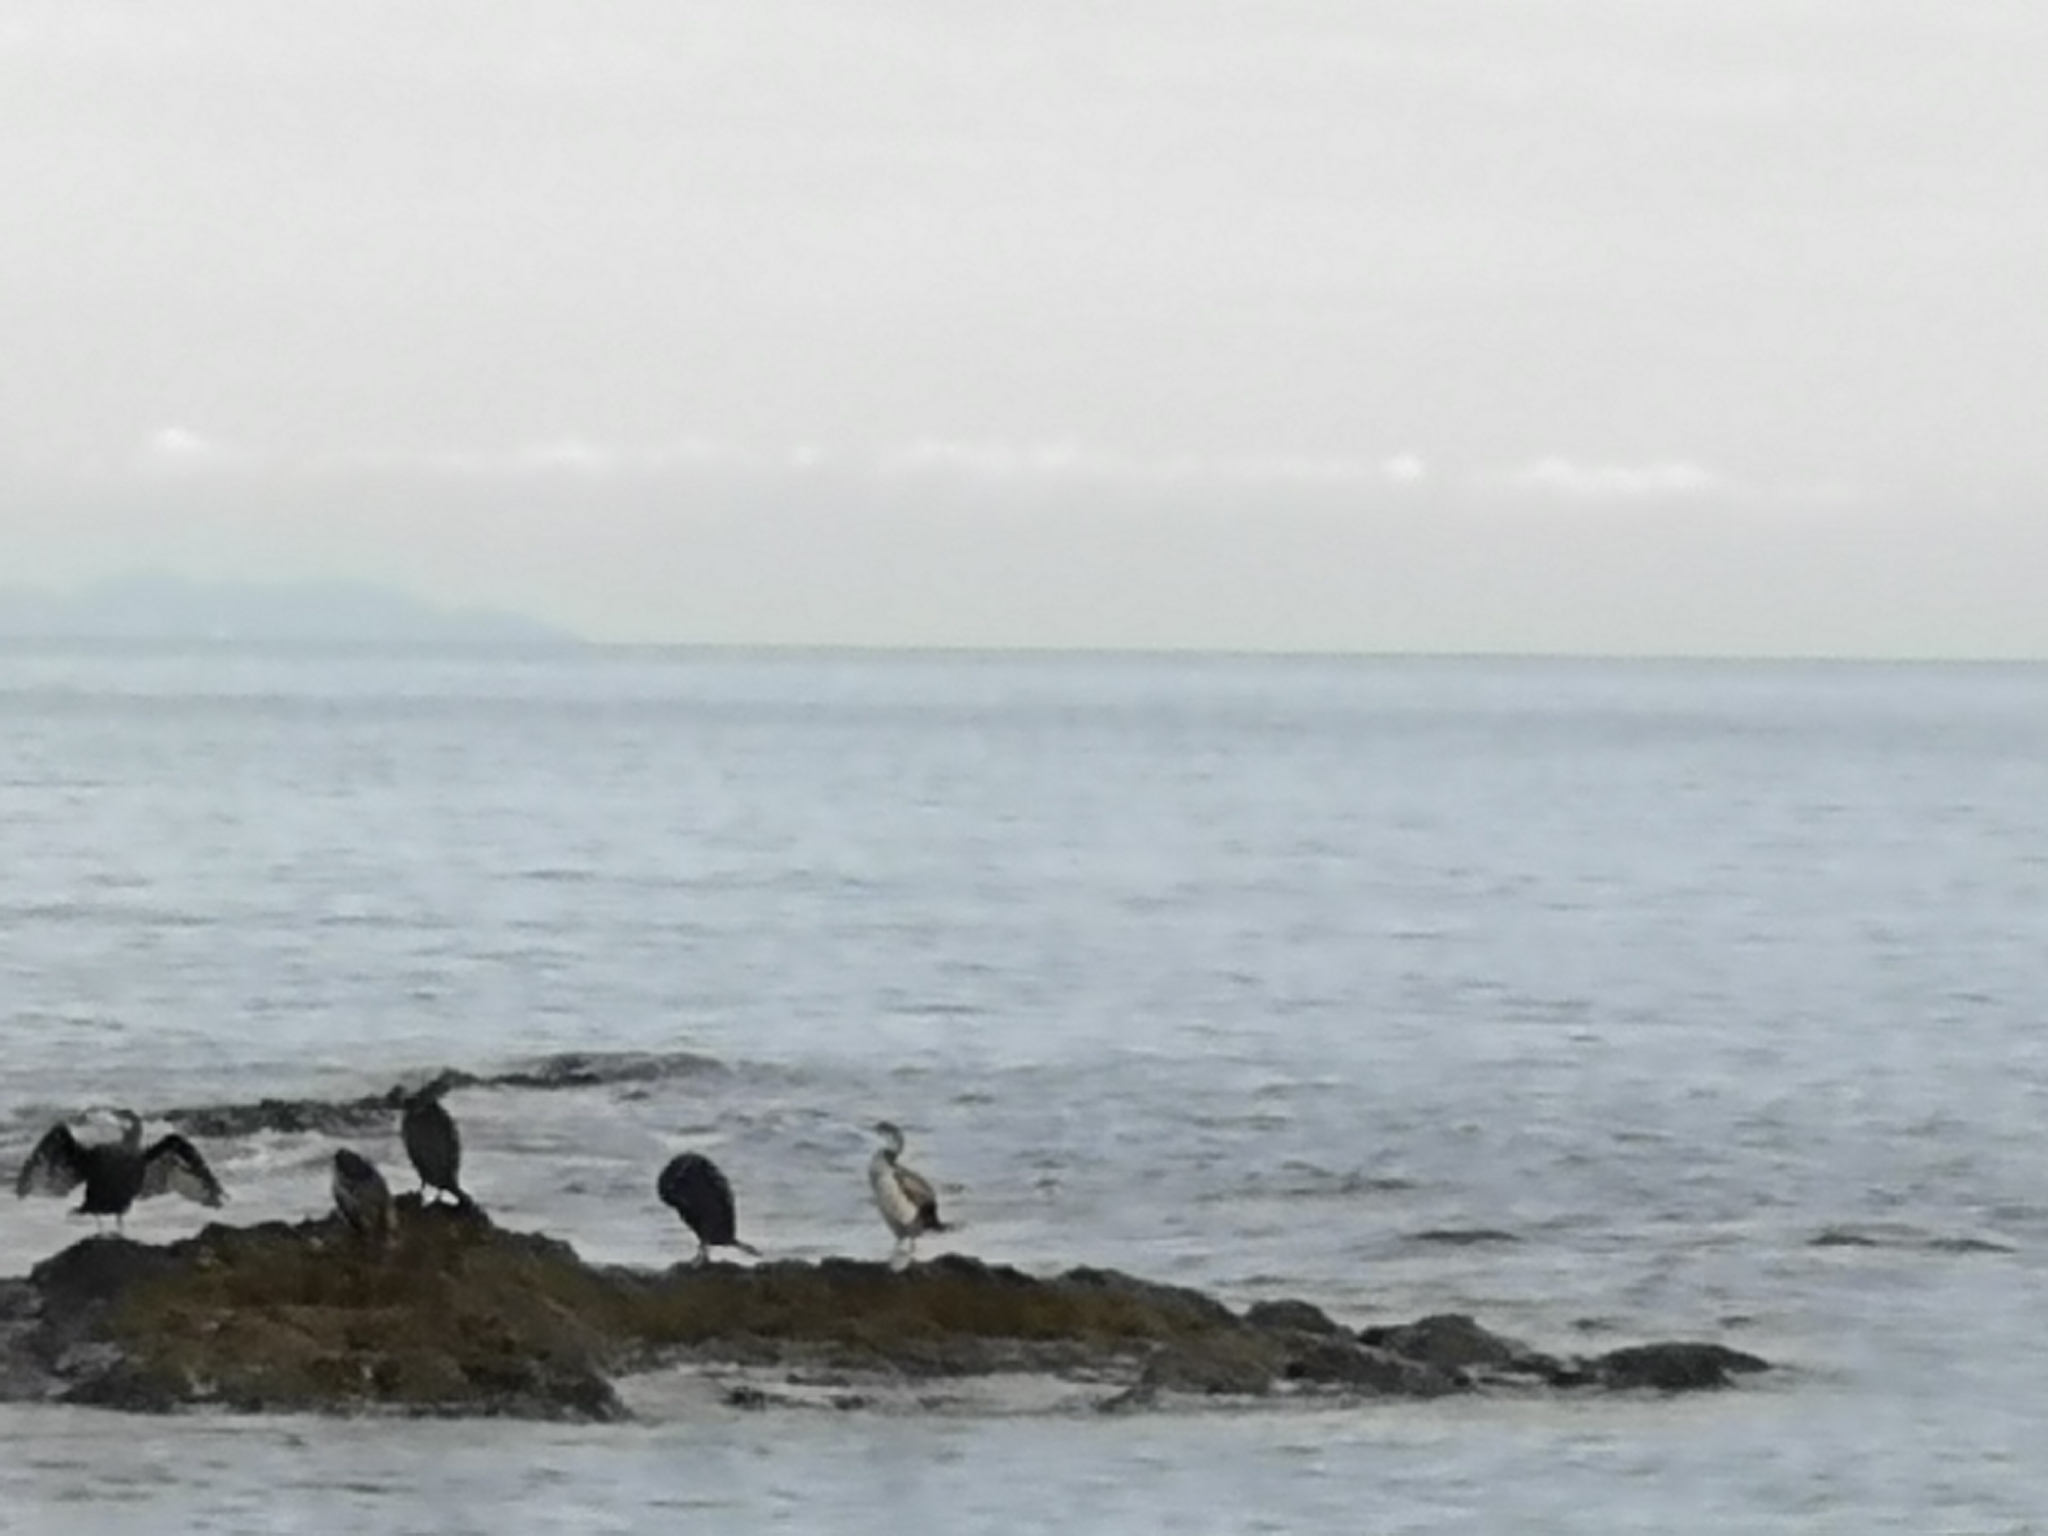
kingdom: Animalia
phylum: Chordata
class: Aves
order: Suliformes
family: Phalacrocoracidae
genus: Phalacrocorax
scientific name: Phalacrocorax aristotelis
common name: European shag
